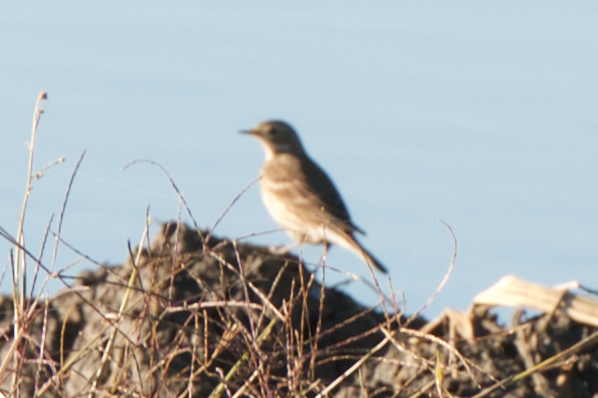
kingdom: Animalia
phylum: Chordata
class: Aves
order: Passeriformes
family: Motacillidae
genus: Anthus
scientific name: Anthus rubescens
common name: Buff-bellied pipit
